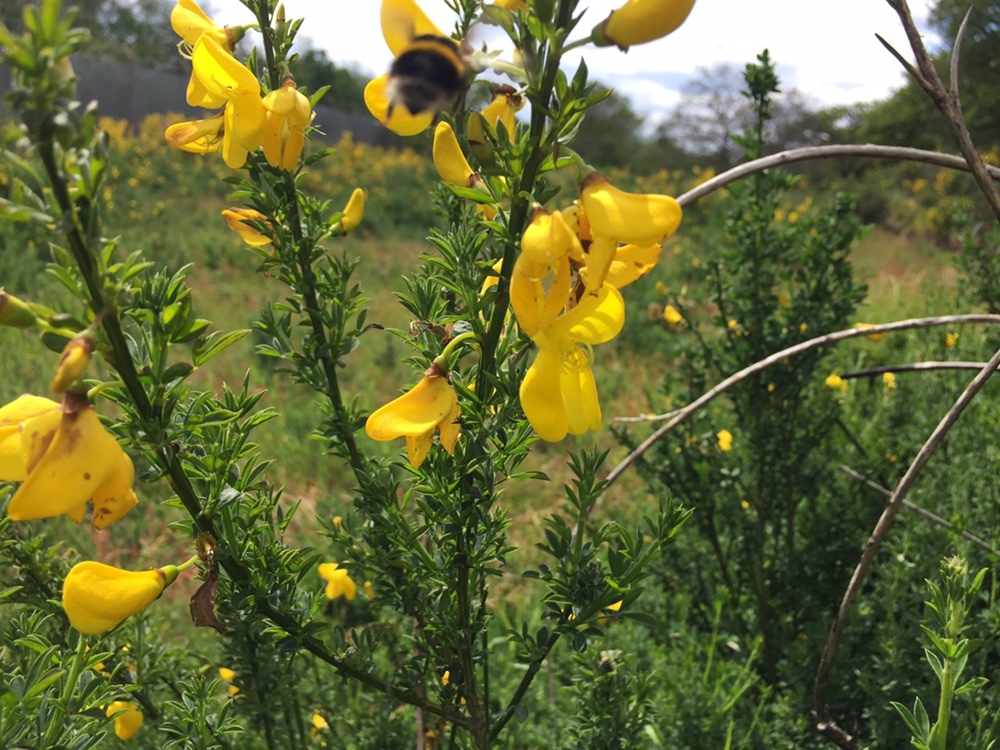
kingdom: Plantae
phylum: Tracheophyta
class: Magnoliopsida
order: Fabales
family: Fabaceae
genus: Cytisus
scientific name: Cytisus scoparius
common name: Scotch broom
